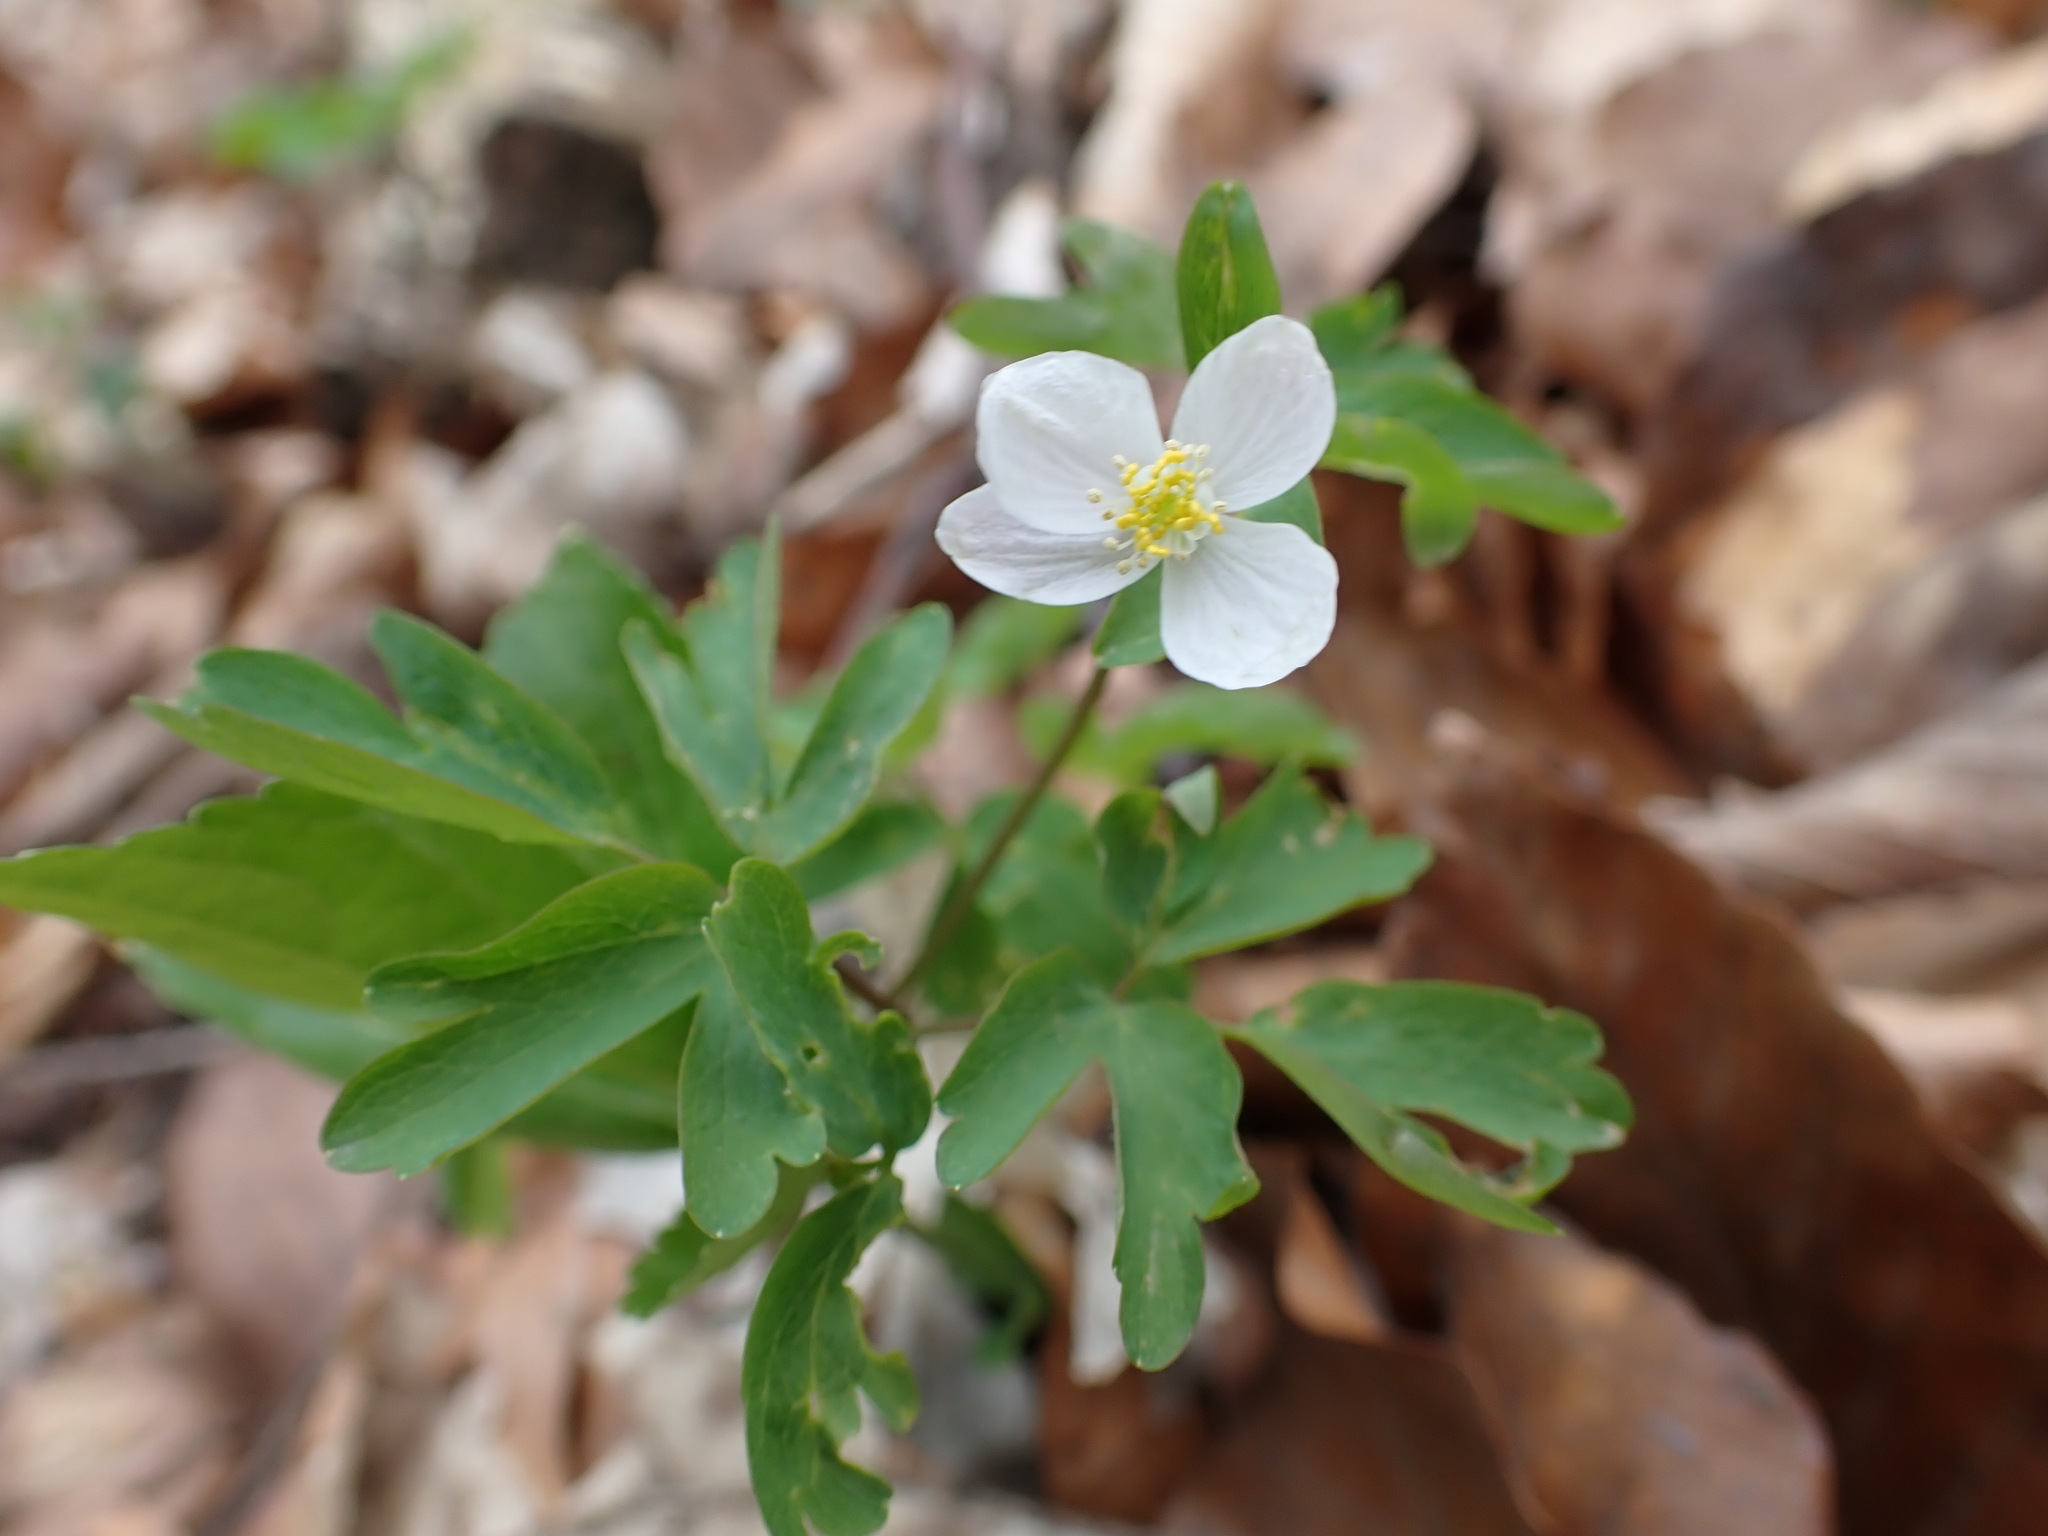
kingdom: Plantae
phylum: Tracheophyta
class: Magnoliopsida
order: Ranunculales
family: Ranunculaceae
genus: Isopyrum
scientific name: Isopyrum thalictroides
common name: Isopyrum
